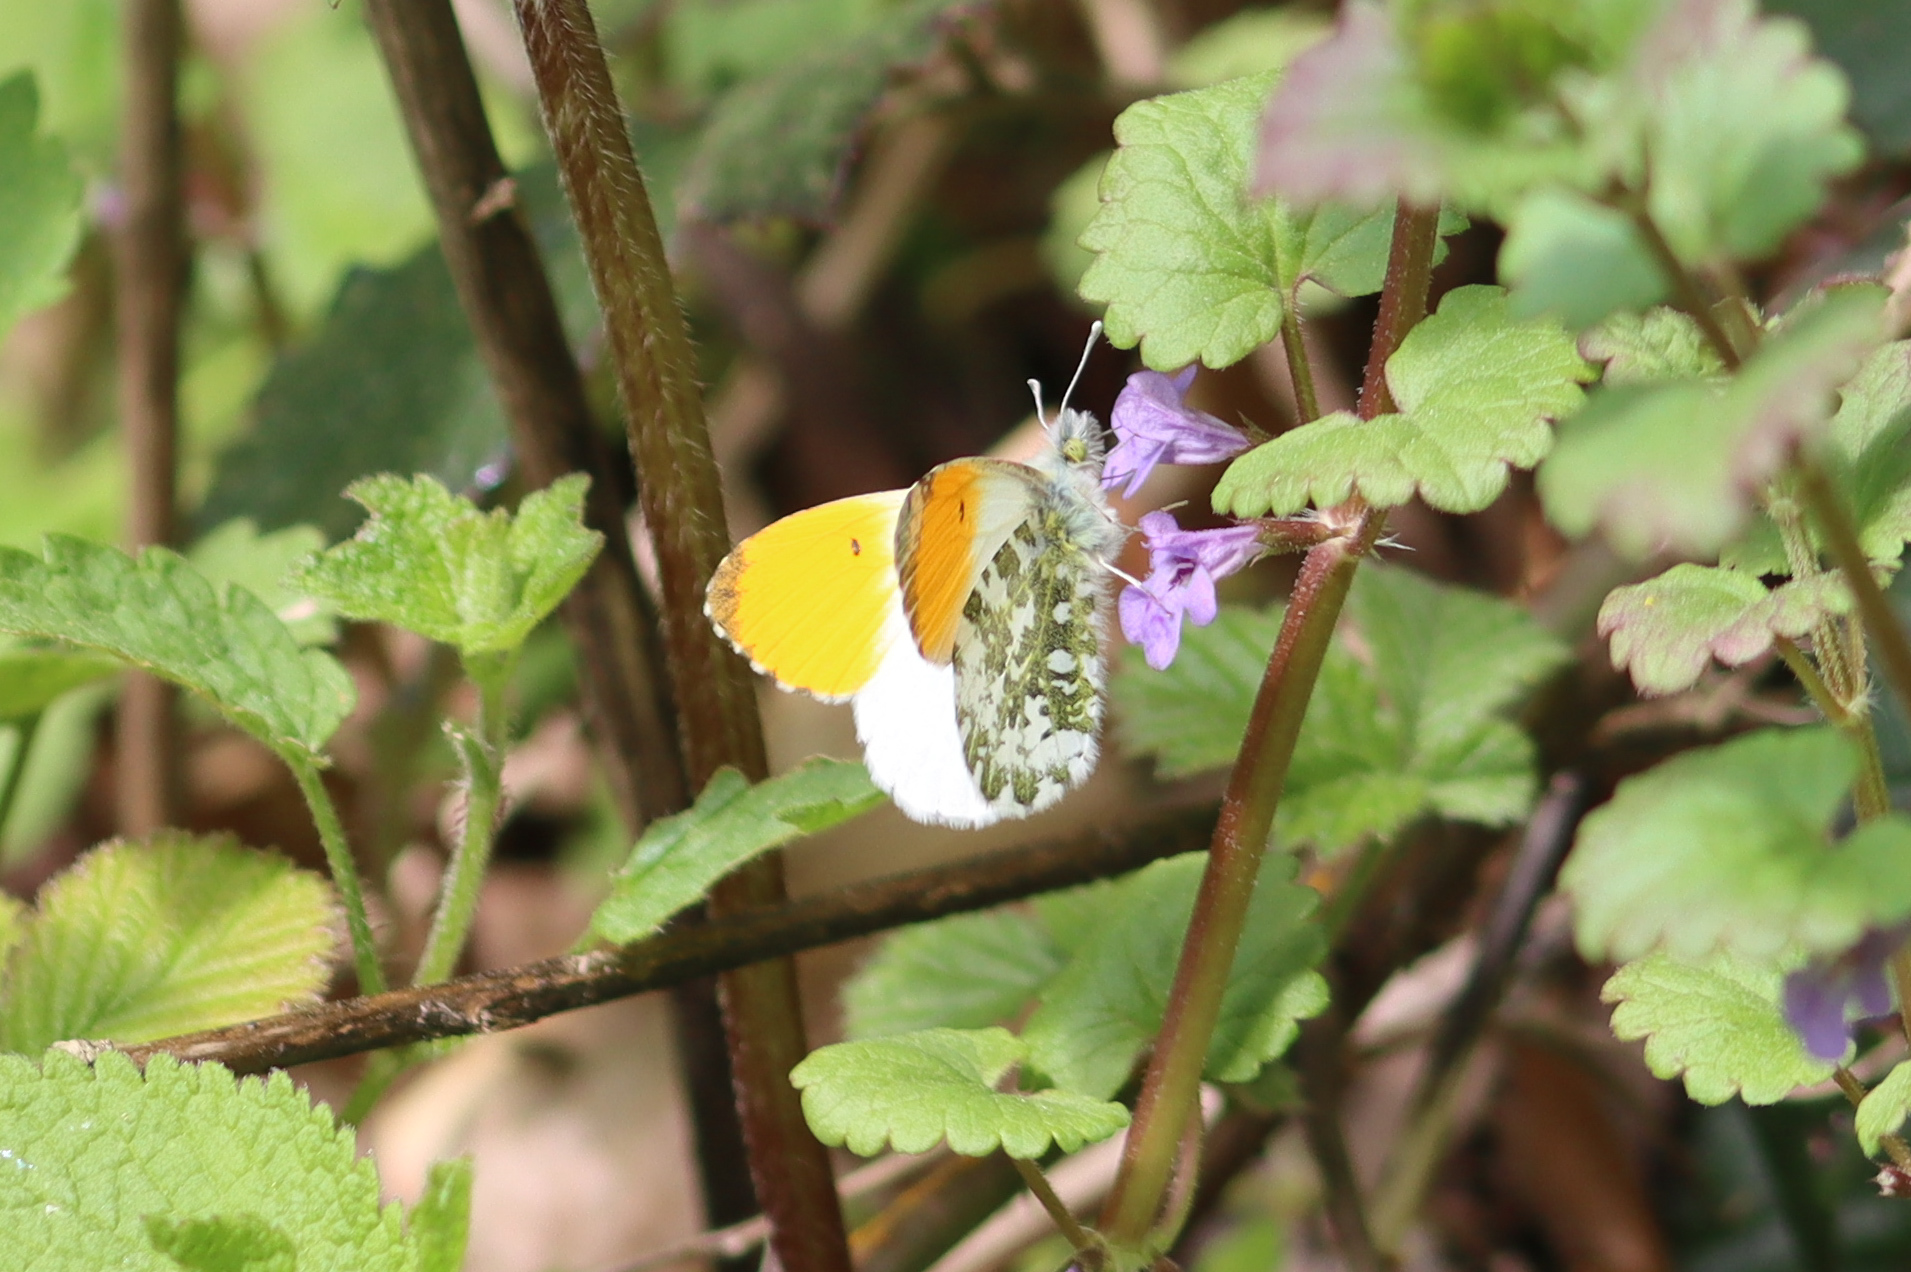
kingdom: Animalia
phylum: Arthropoda
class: Insecta
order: Lepidoptera
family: Pieridae
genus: Anthocharis
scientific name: Anthocharis cardamines
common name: Orange-tip
